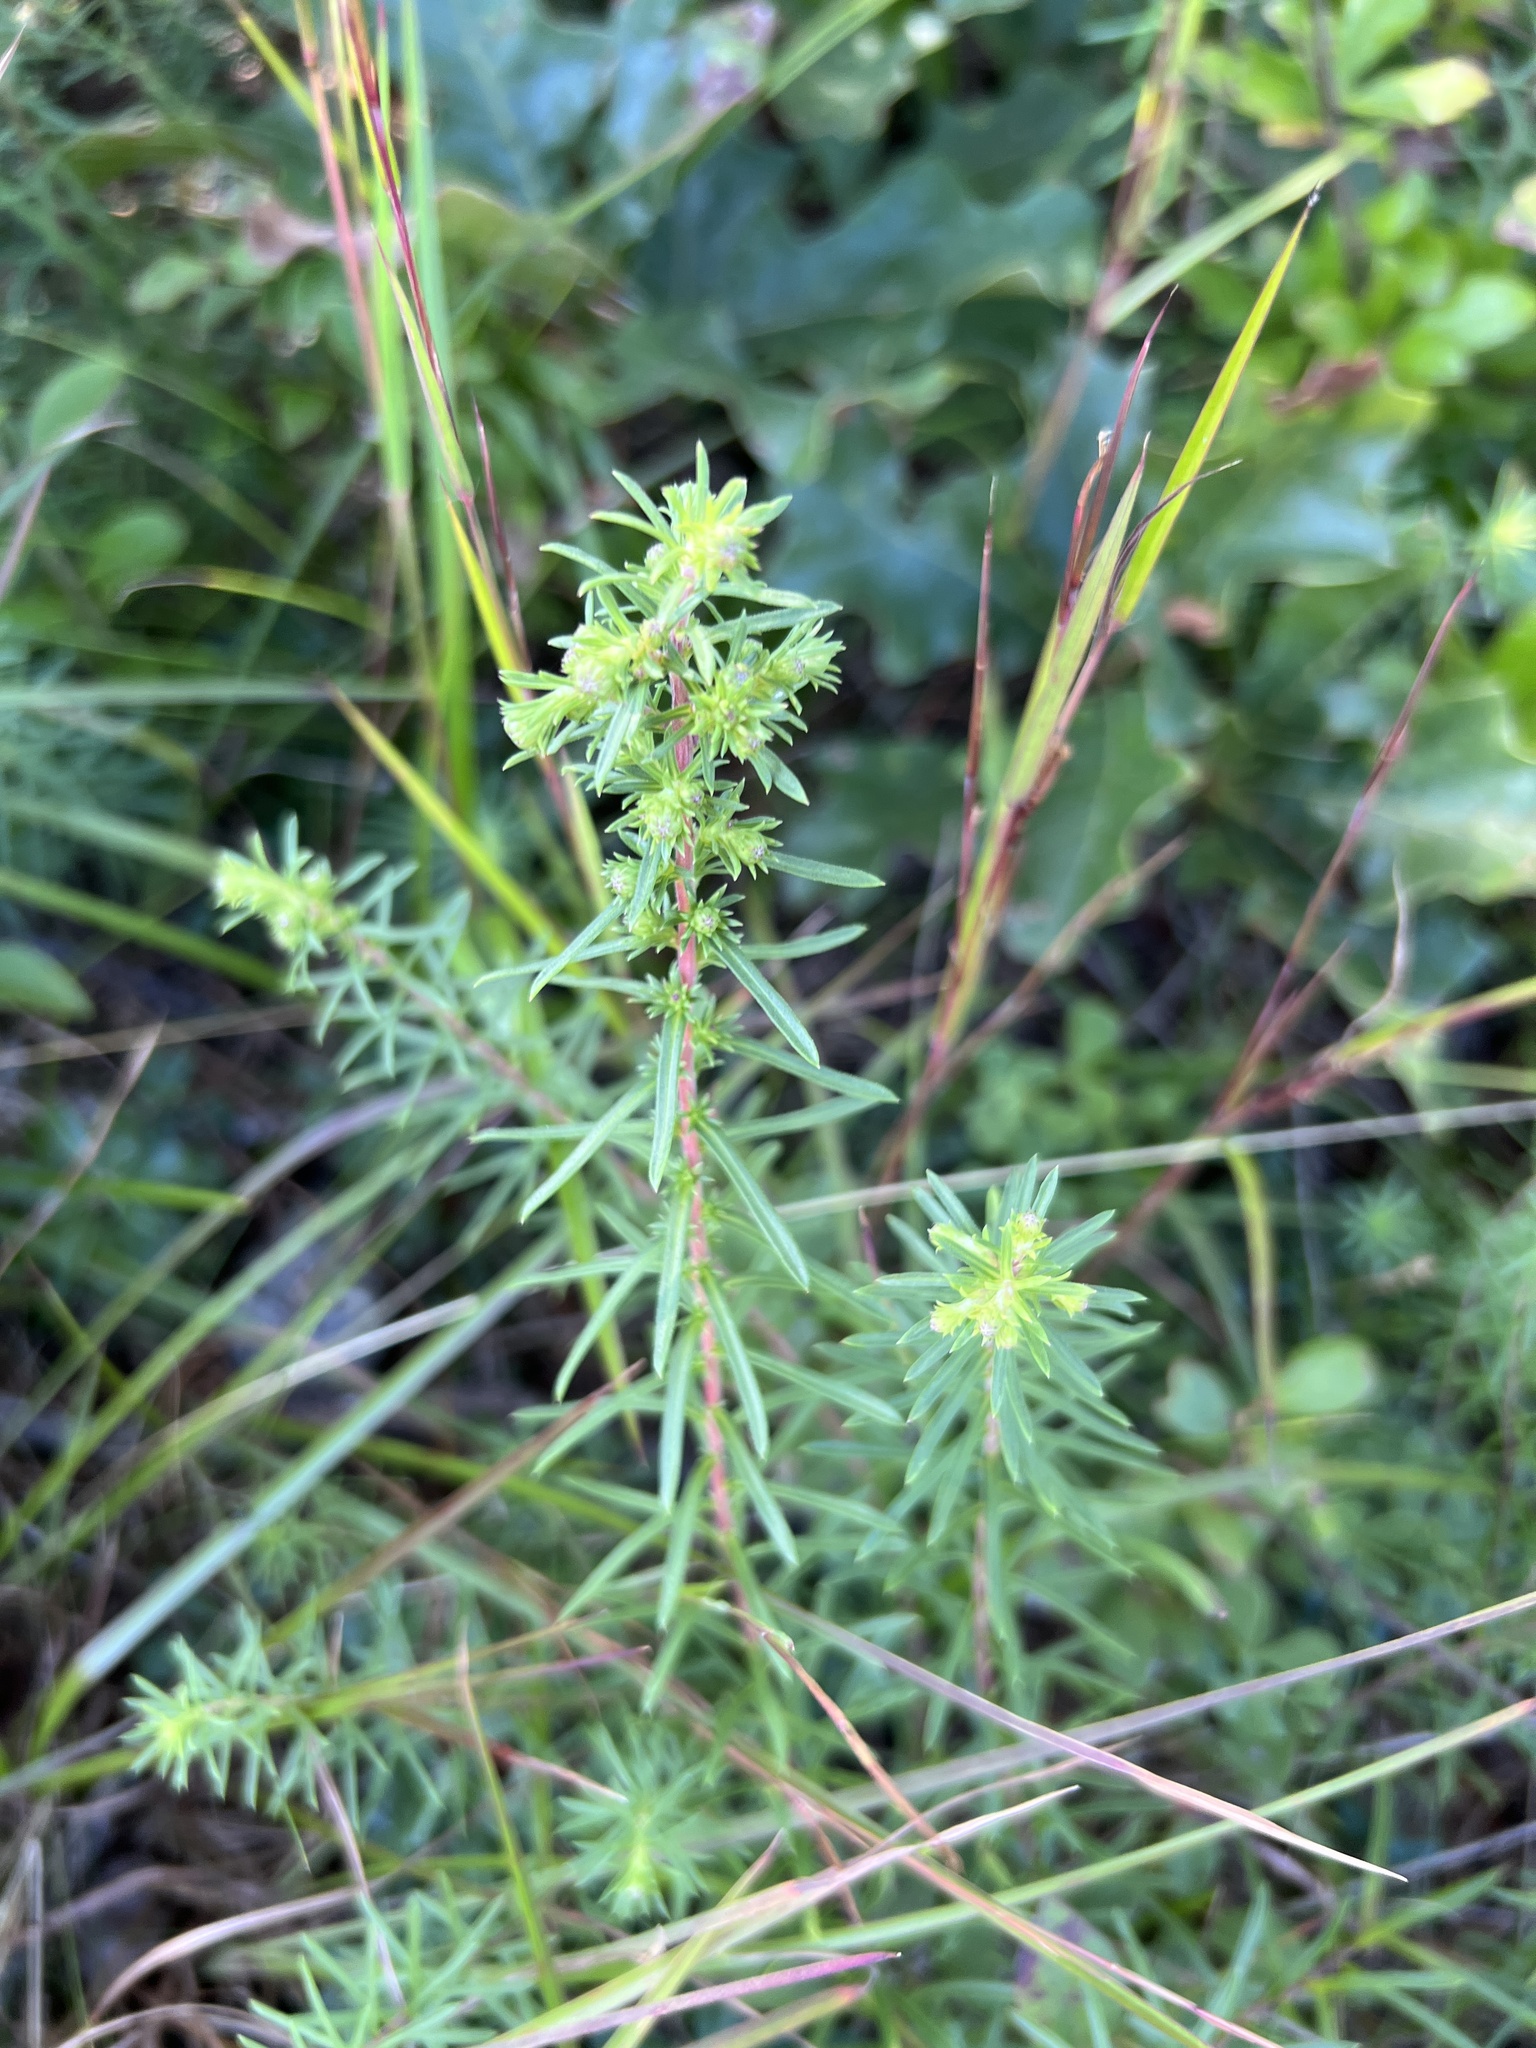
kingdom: Plantae
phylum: Tracheophyta
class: Magnoliopsida
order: Asterales
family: Asteraceae
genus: Ionactis
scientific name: Ionactis linariifolia
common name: Flax-leaf aster
